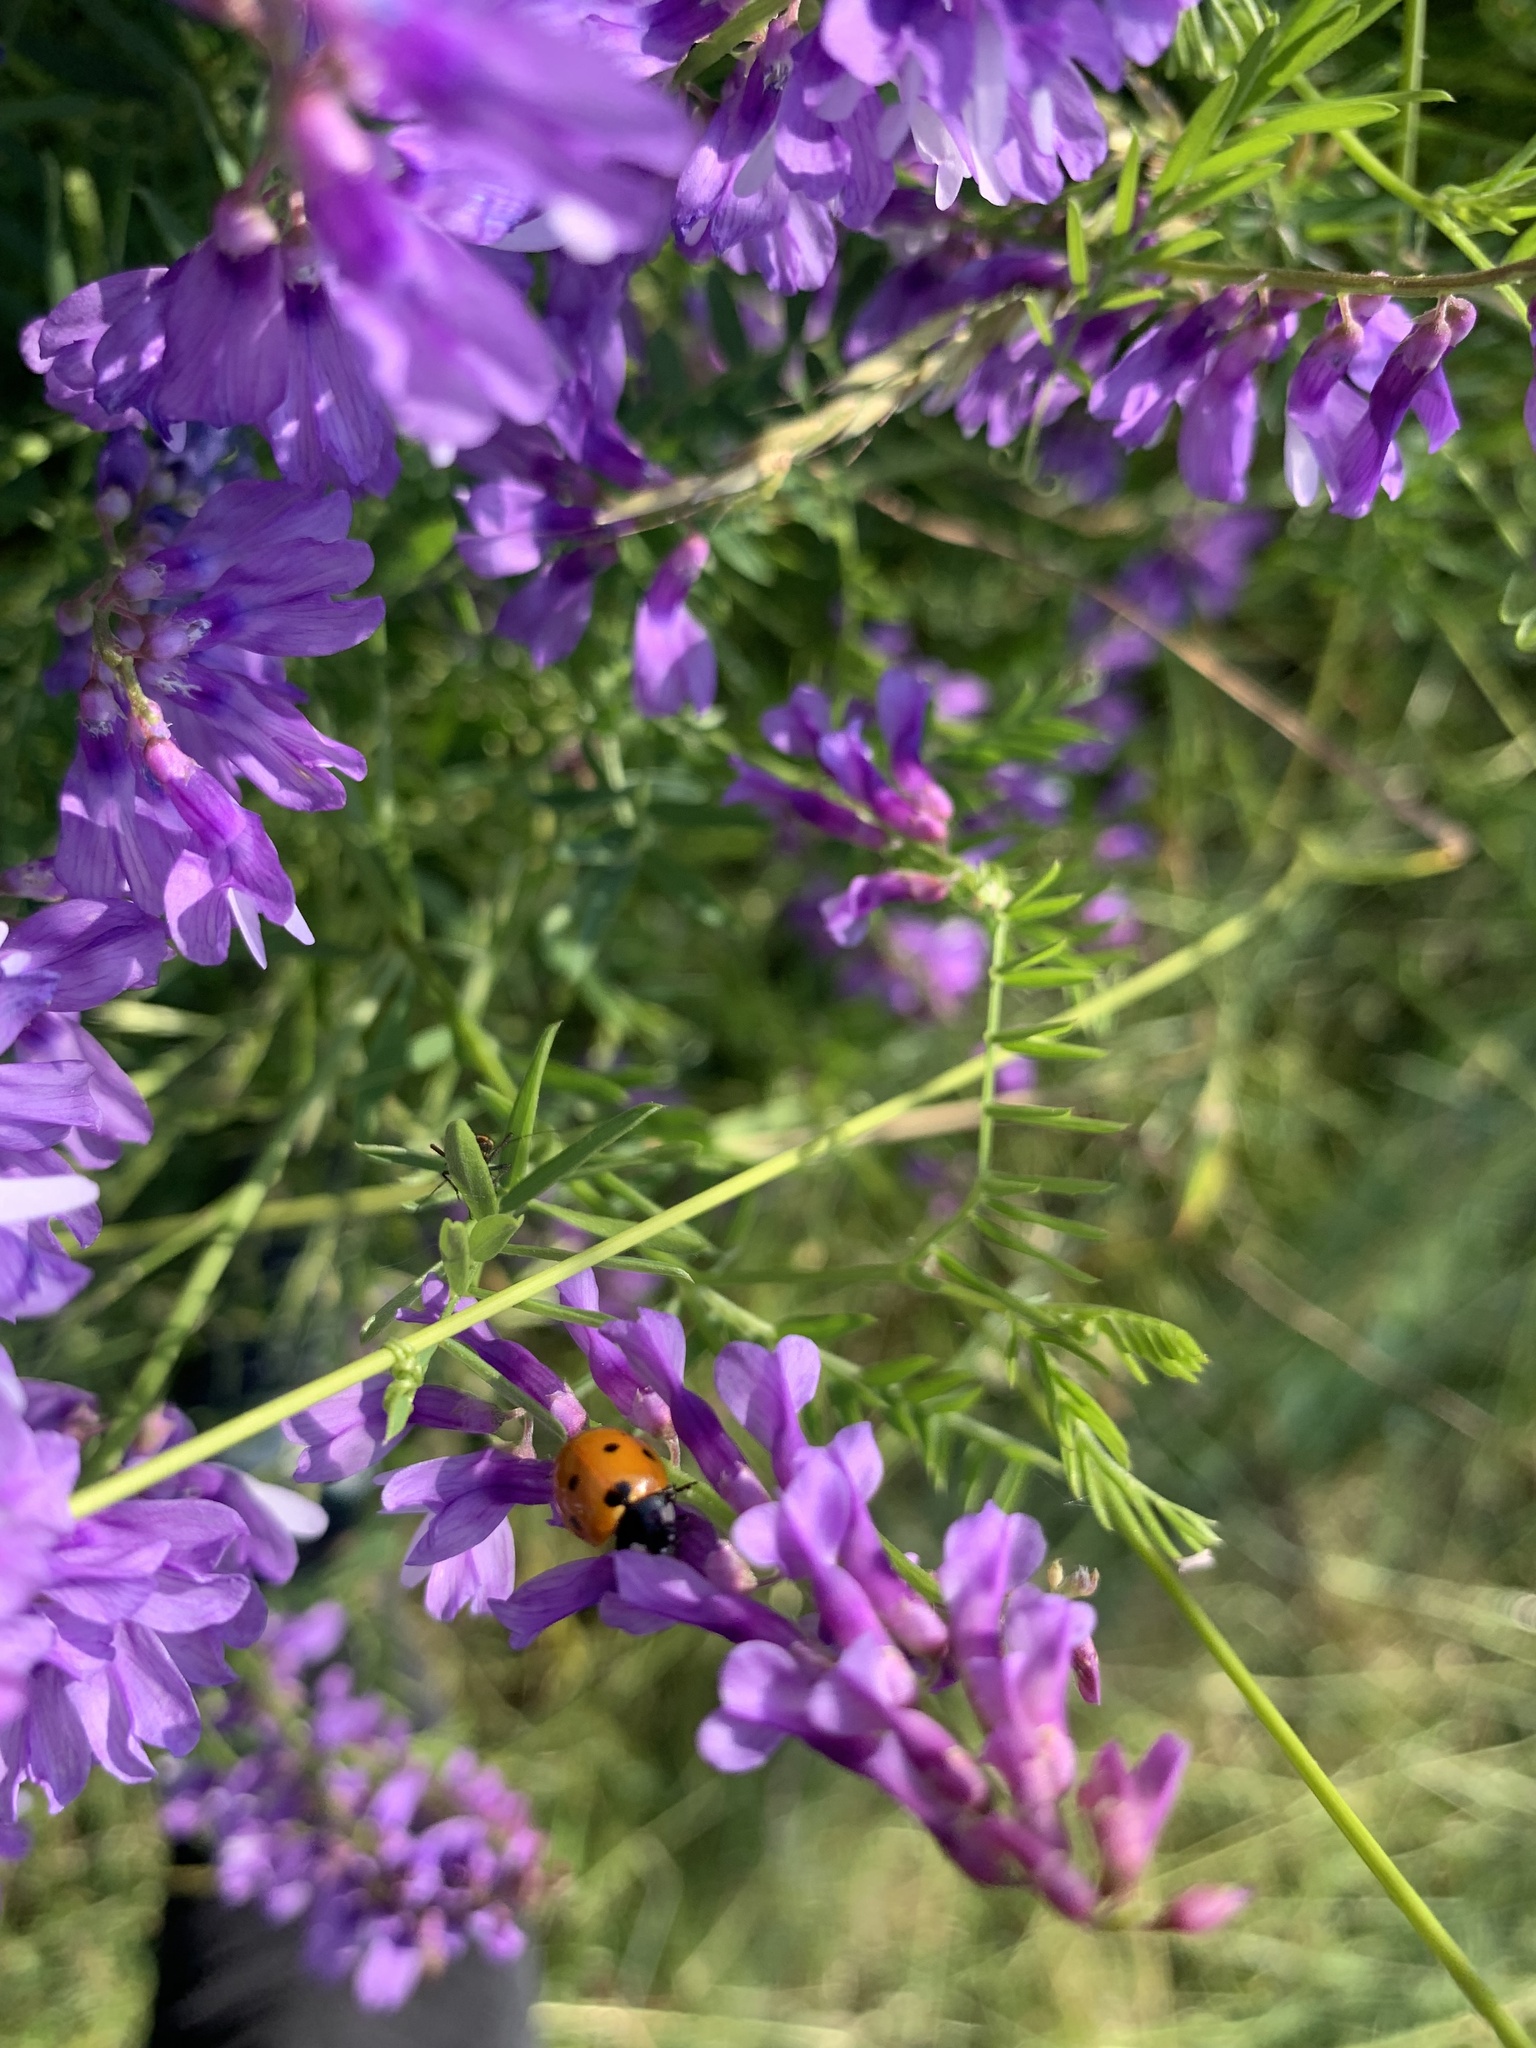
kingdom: Animalia
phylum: Arthropoda
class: Insecta
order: Coleoptera
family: Coccinellidae
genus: Coccinella
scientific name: Coccinella septempunctata
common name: Sevenspotted lady beetle
